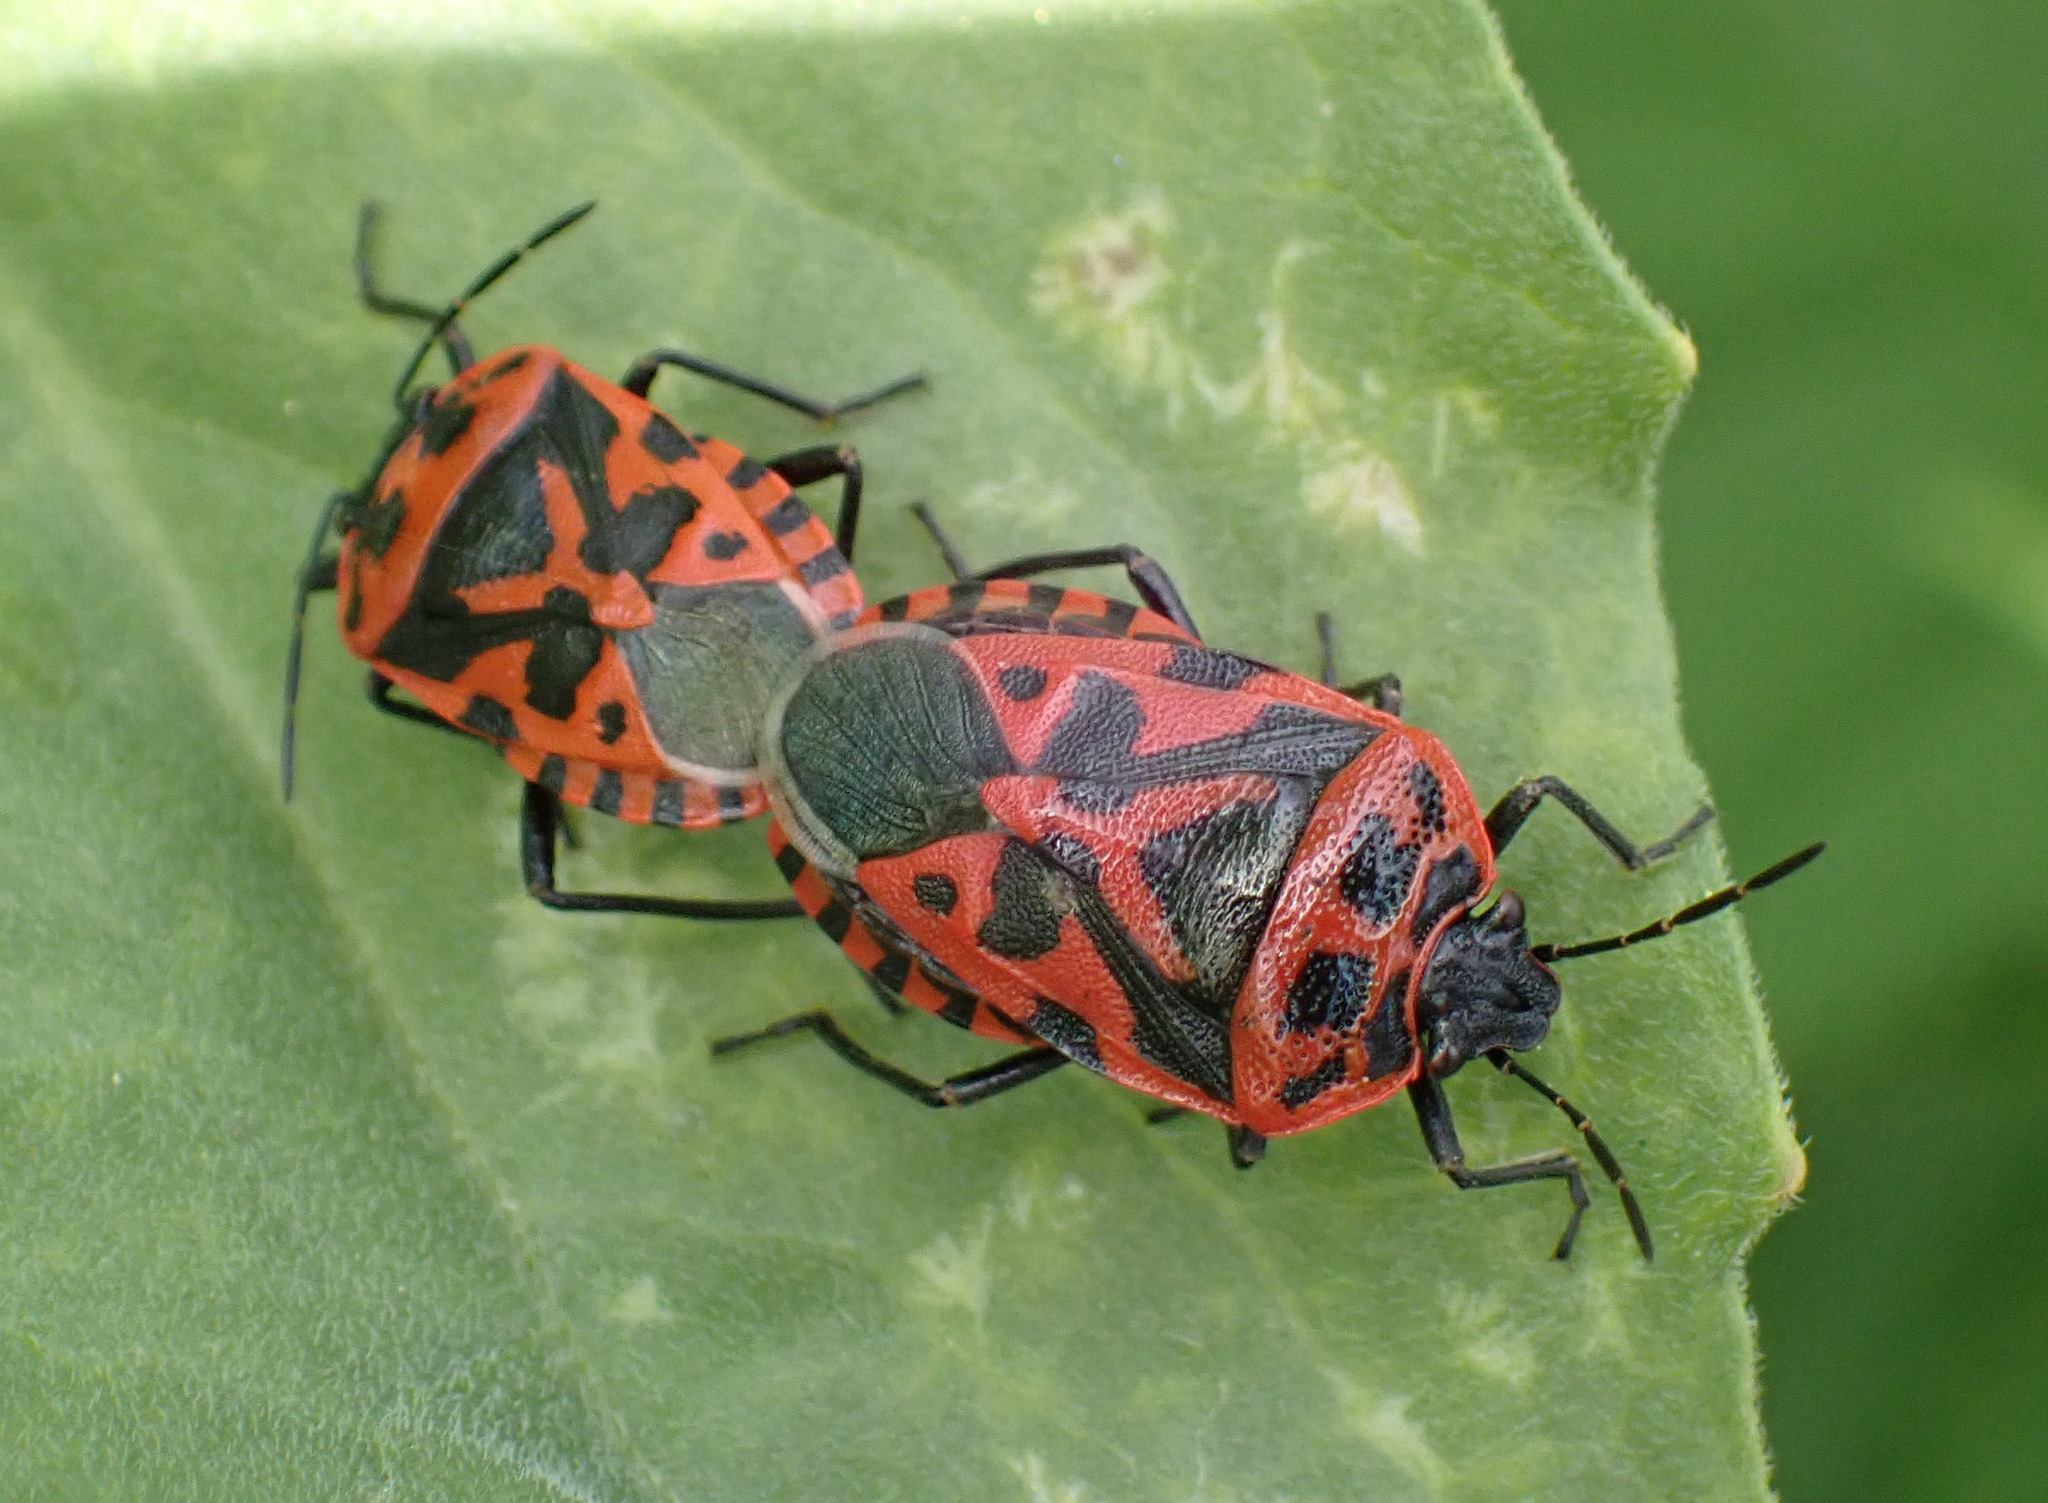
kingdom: Animalia
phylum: Arthropoda
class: Insecta
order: Hemiptera
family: Pentatomidae
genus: Eurydema
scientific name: Eurydema ventralis
